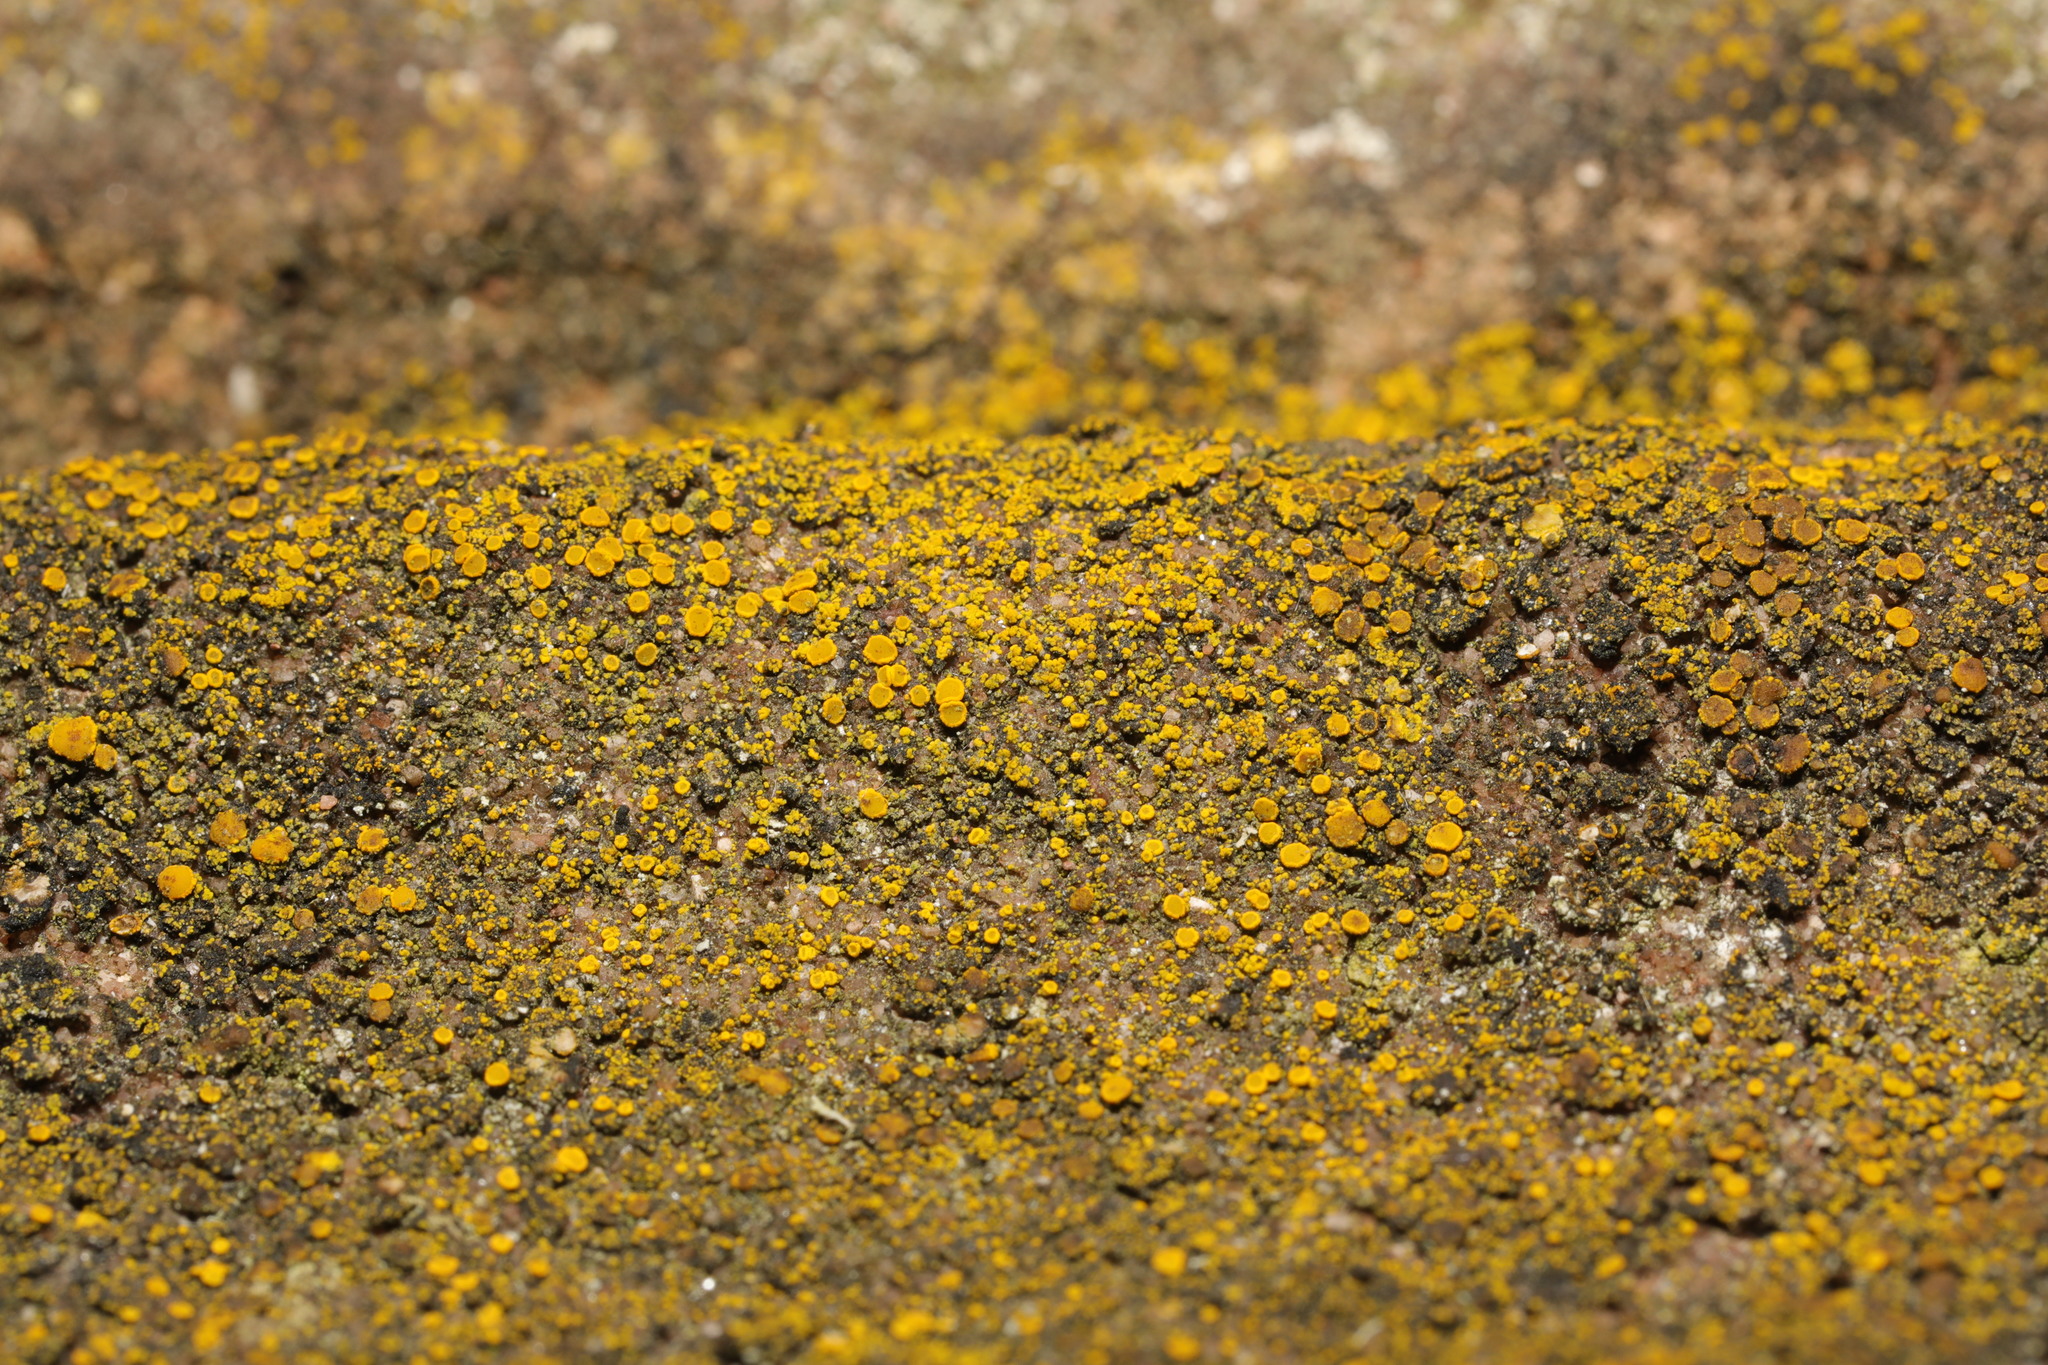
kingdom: Fungi
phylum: Ascomycota
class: Candelariomycetes
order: Candelariales
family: Candelariaceae
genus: Candelariella
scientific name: Candelariella vitellina
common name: Common goldspeck
